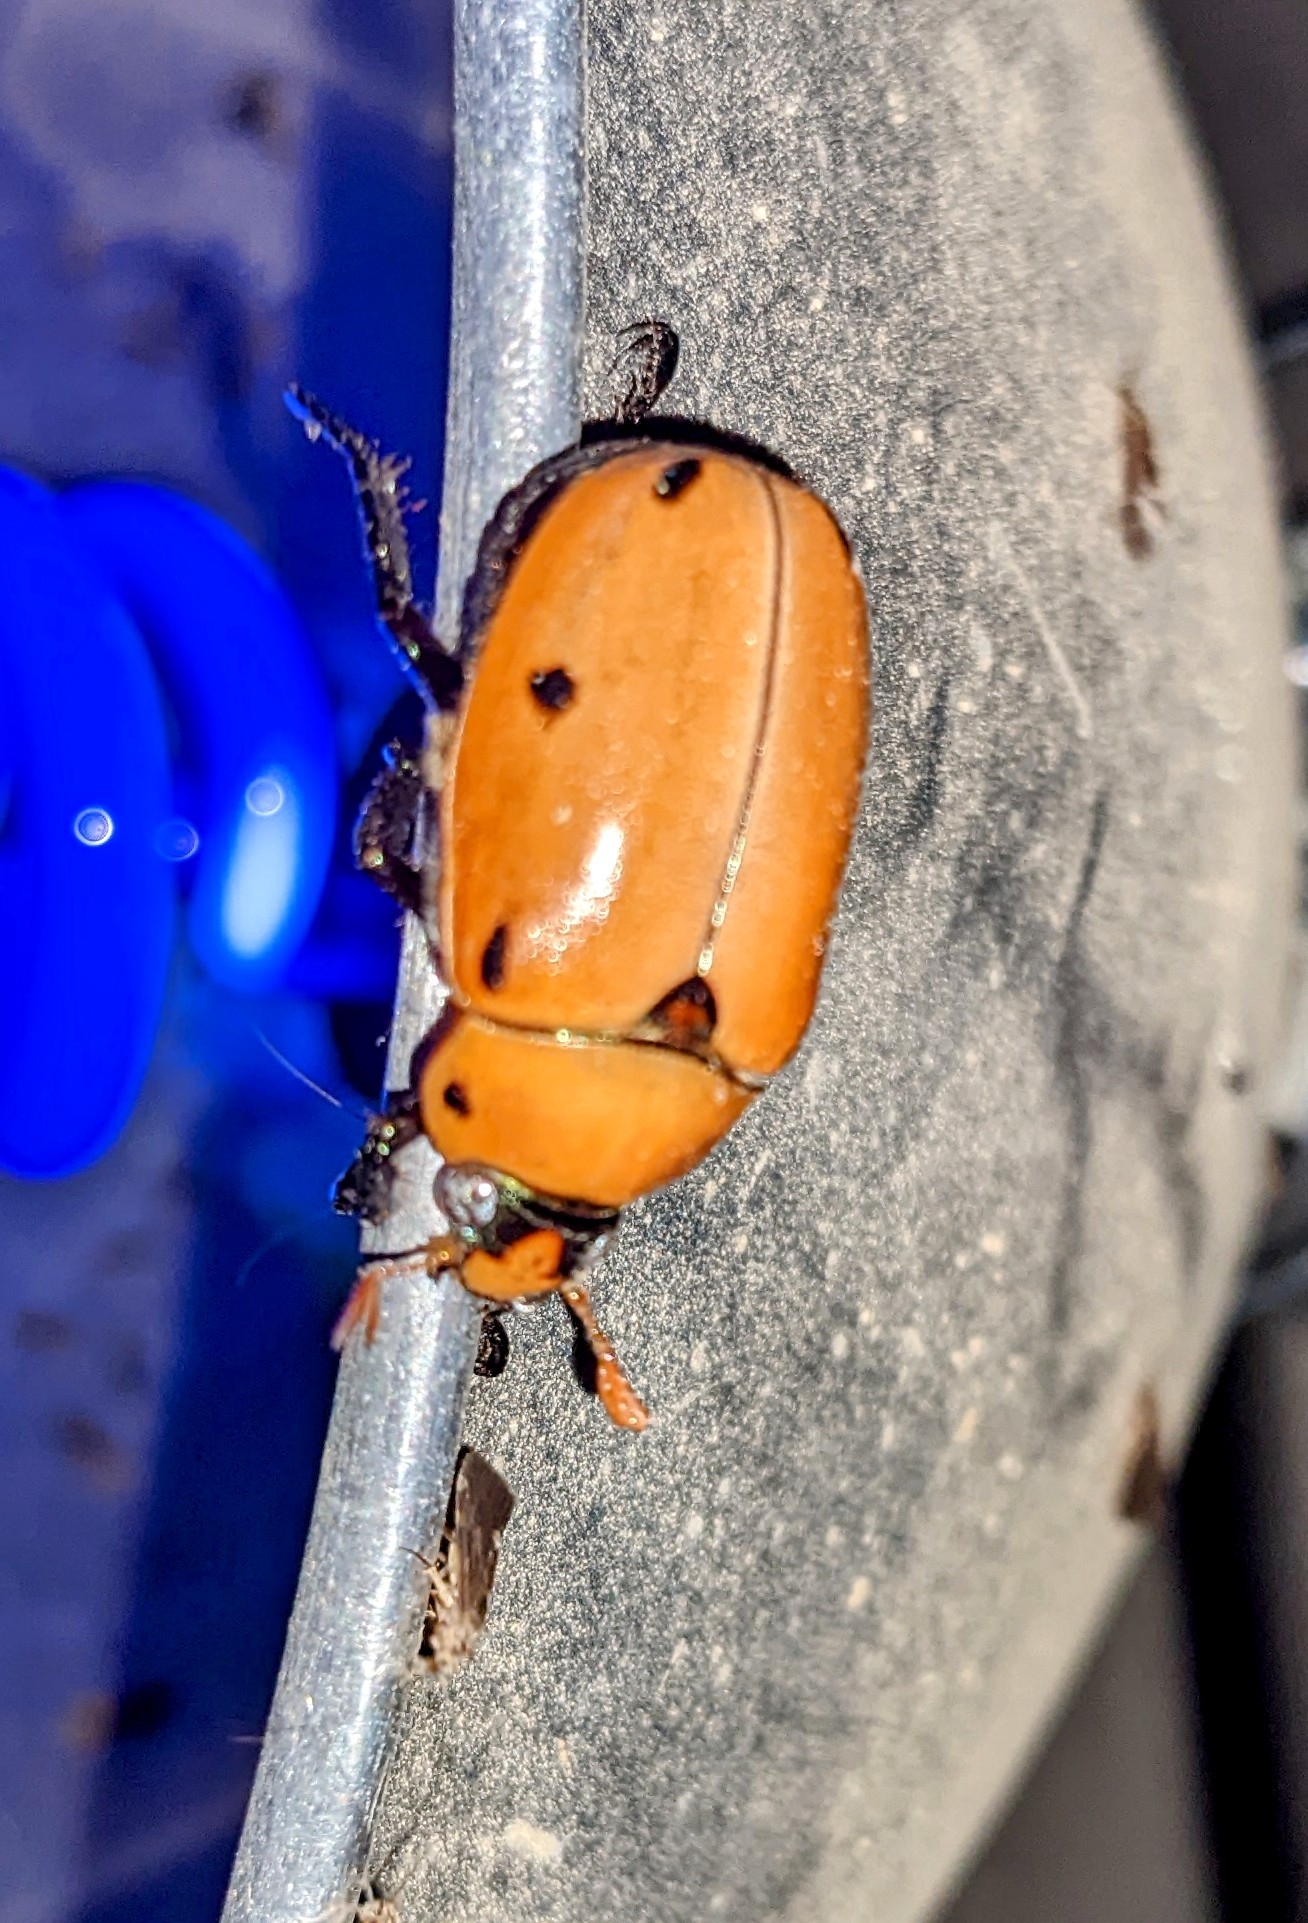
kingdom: Animalia
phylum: Arthropoda
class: Insecta
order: Coleoptera
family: Scarabaeidae
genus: Pelidnota
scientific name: Pelidnota punctata
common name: Grapevine beetle
